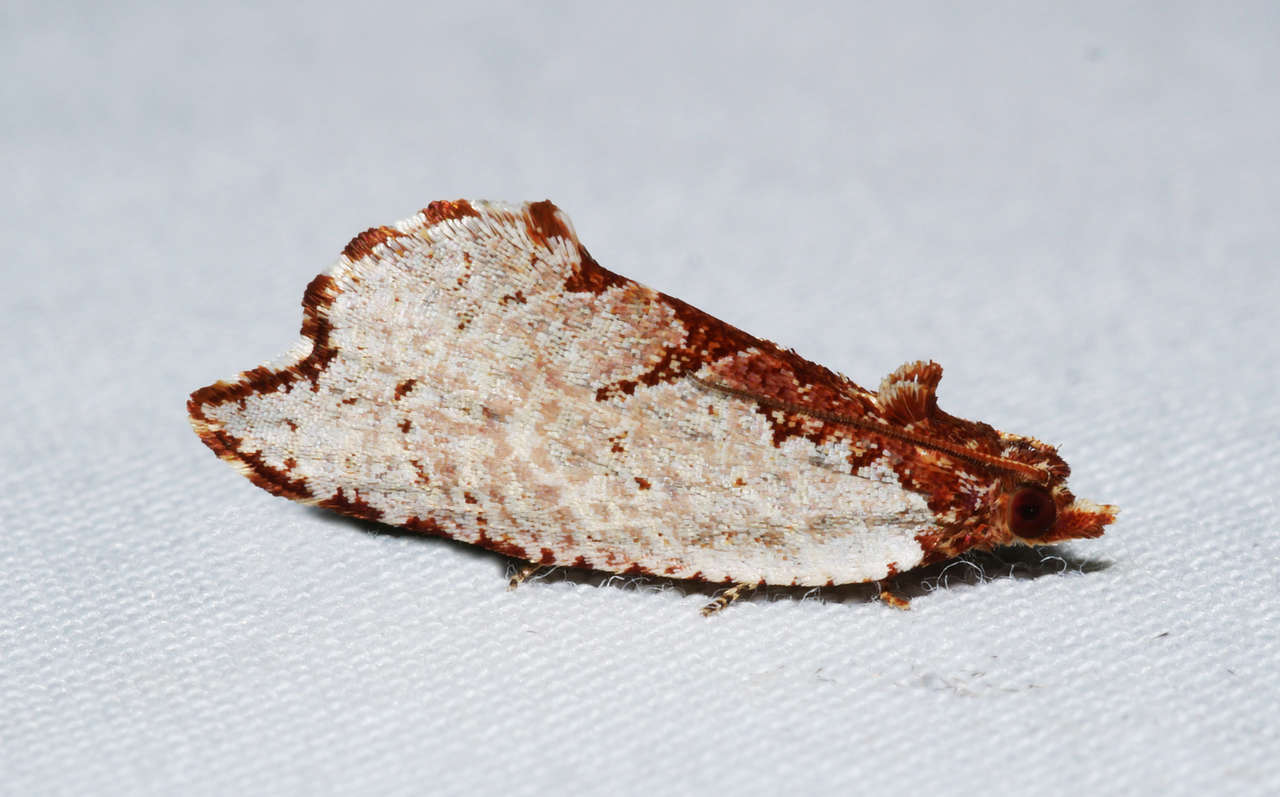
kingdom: Animalia
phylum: Arthropoda
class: Insecta
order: Lepidoptera
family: Tortricidae
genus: Glyphidoptera
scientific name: Glyphidoptera polymita
